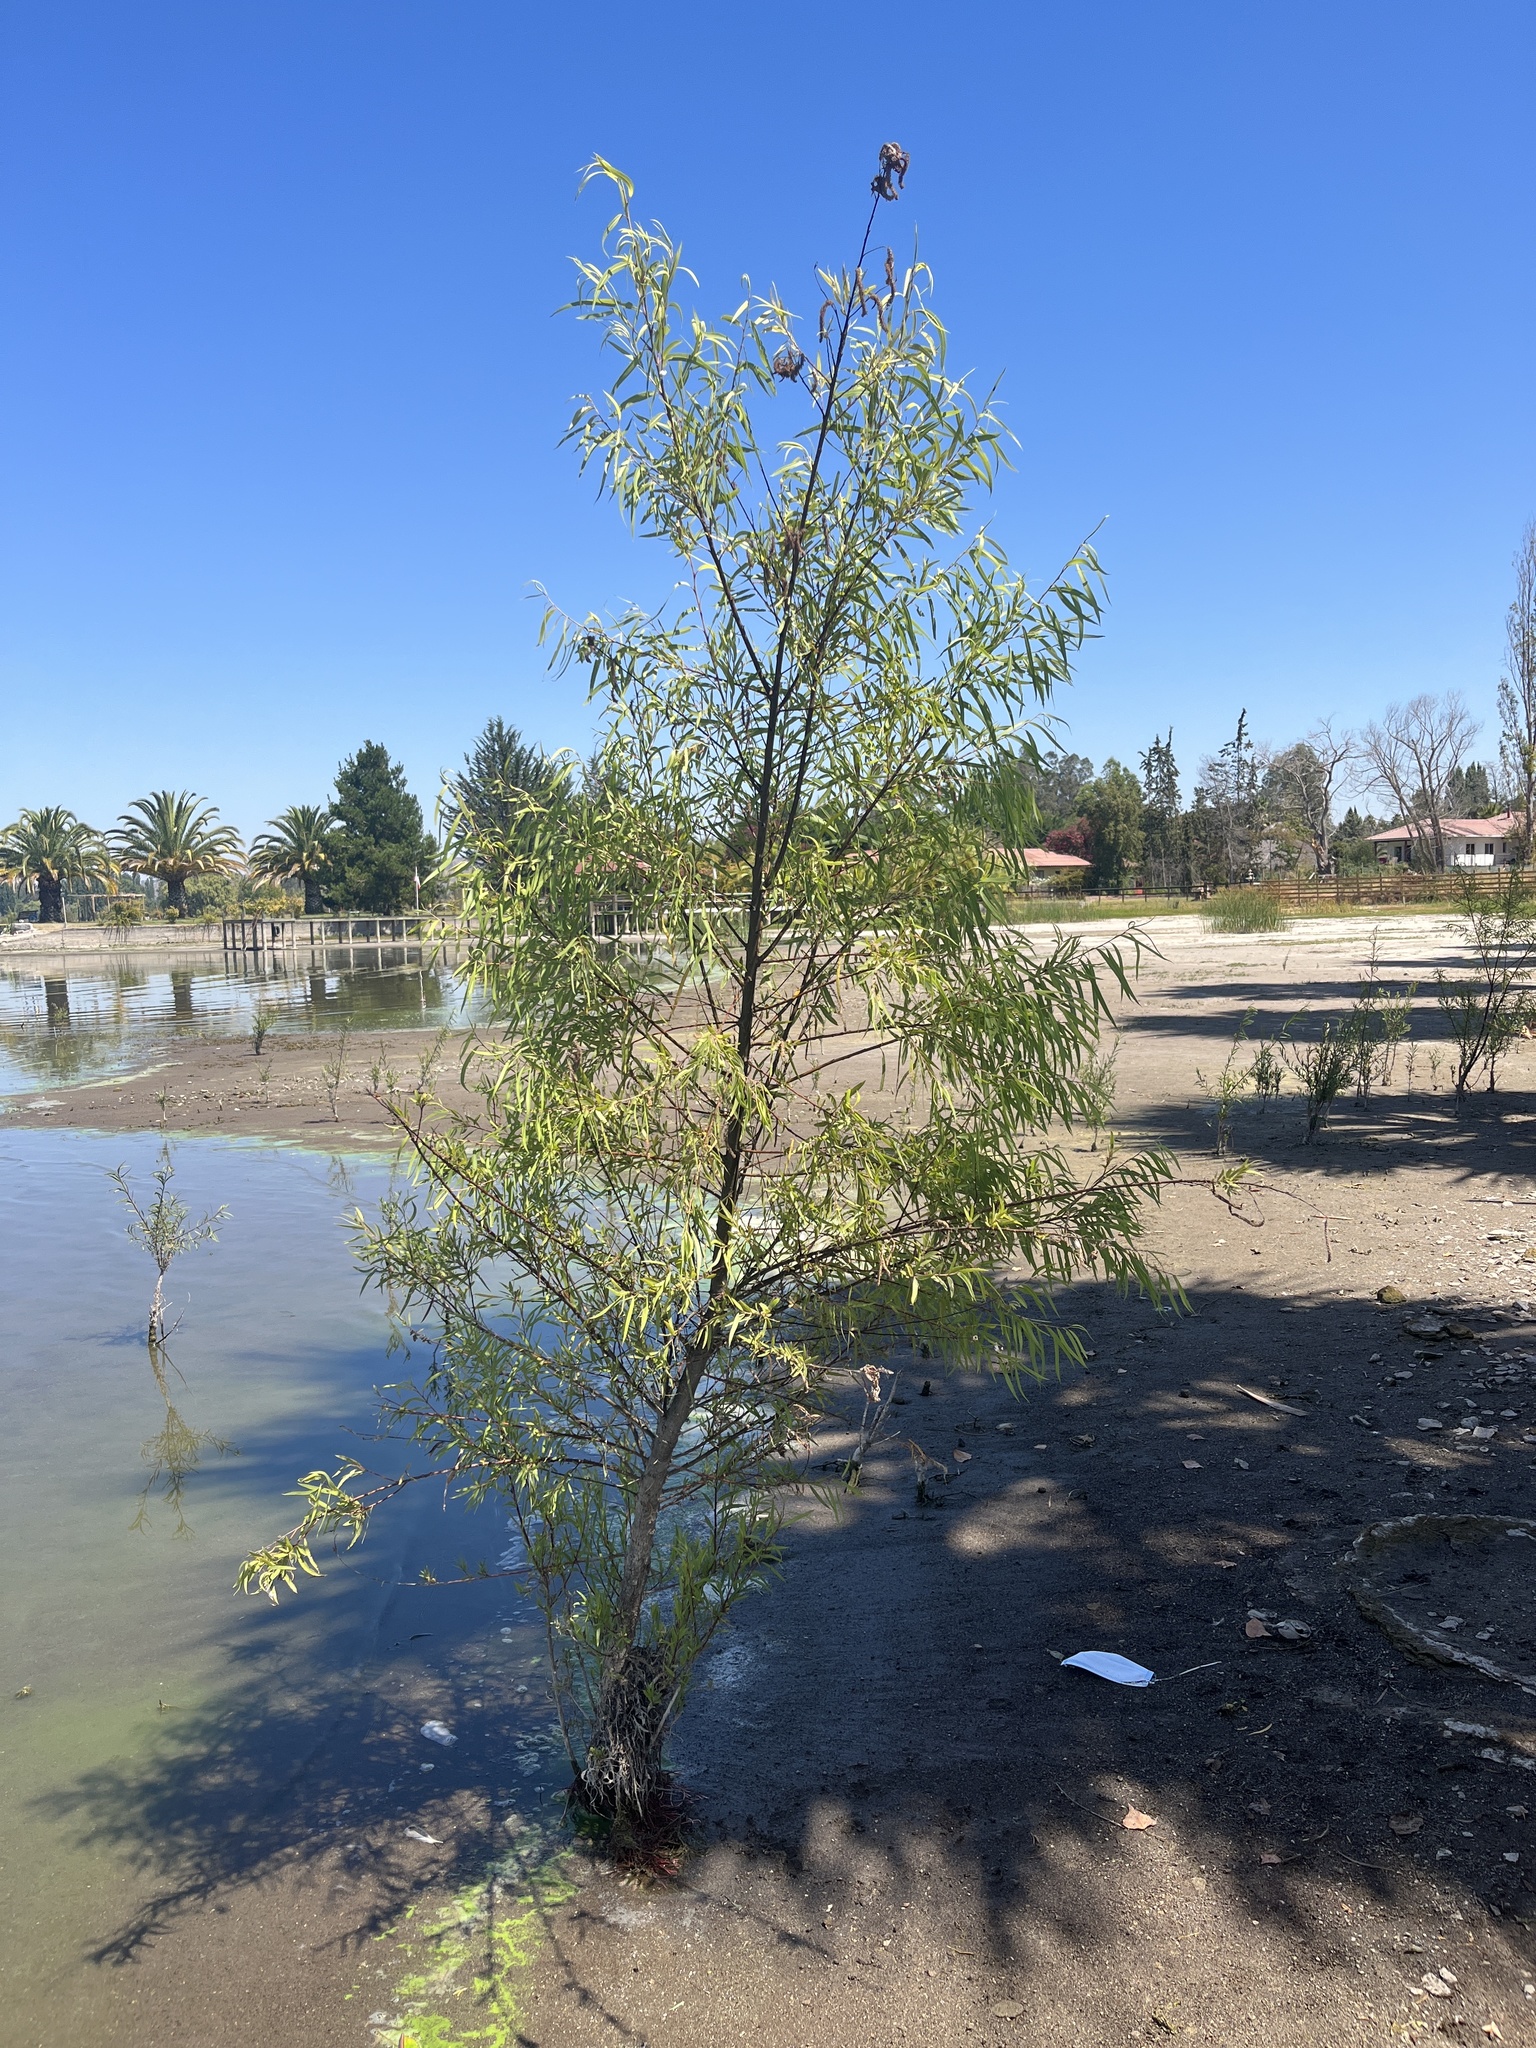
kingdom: Plantae
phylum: Tracheophyta
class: Magnoliopsida
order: Malpighiales
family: Salicaceae
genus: Salix
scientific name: Salix humboldtiana
